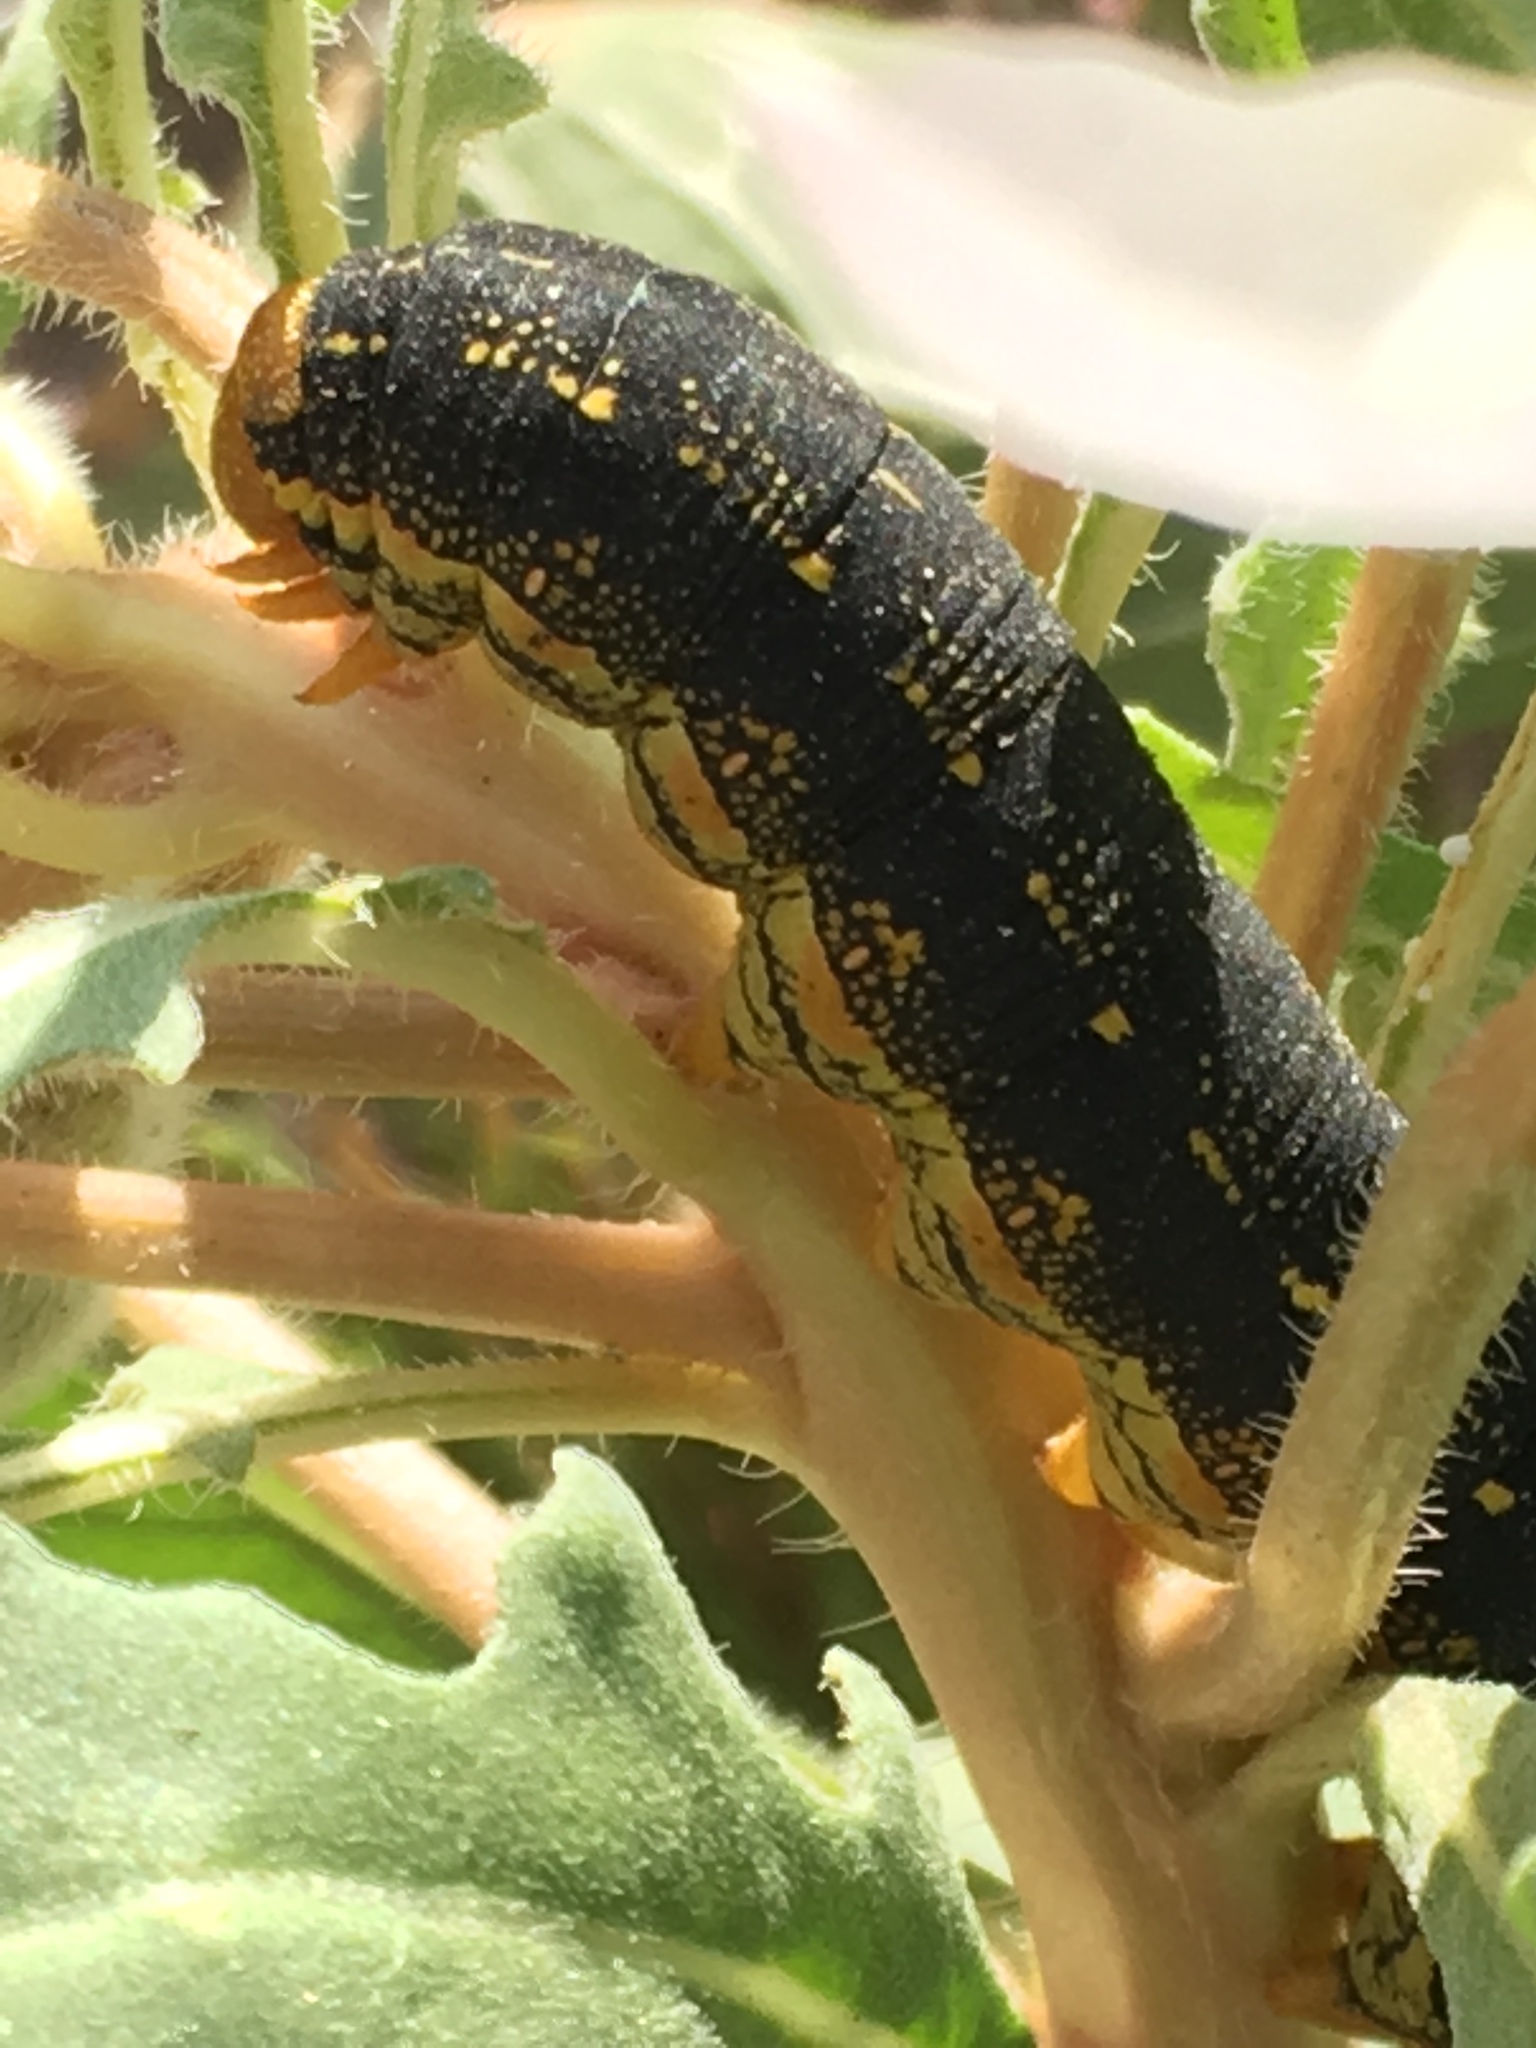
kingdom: Animalia
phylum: Arthropoda
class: Insecta
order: Lepidoptera
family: Sphingidae
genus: Hyles
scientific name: Hyles lineata
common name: White-lined sphinx
